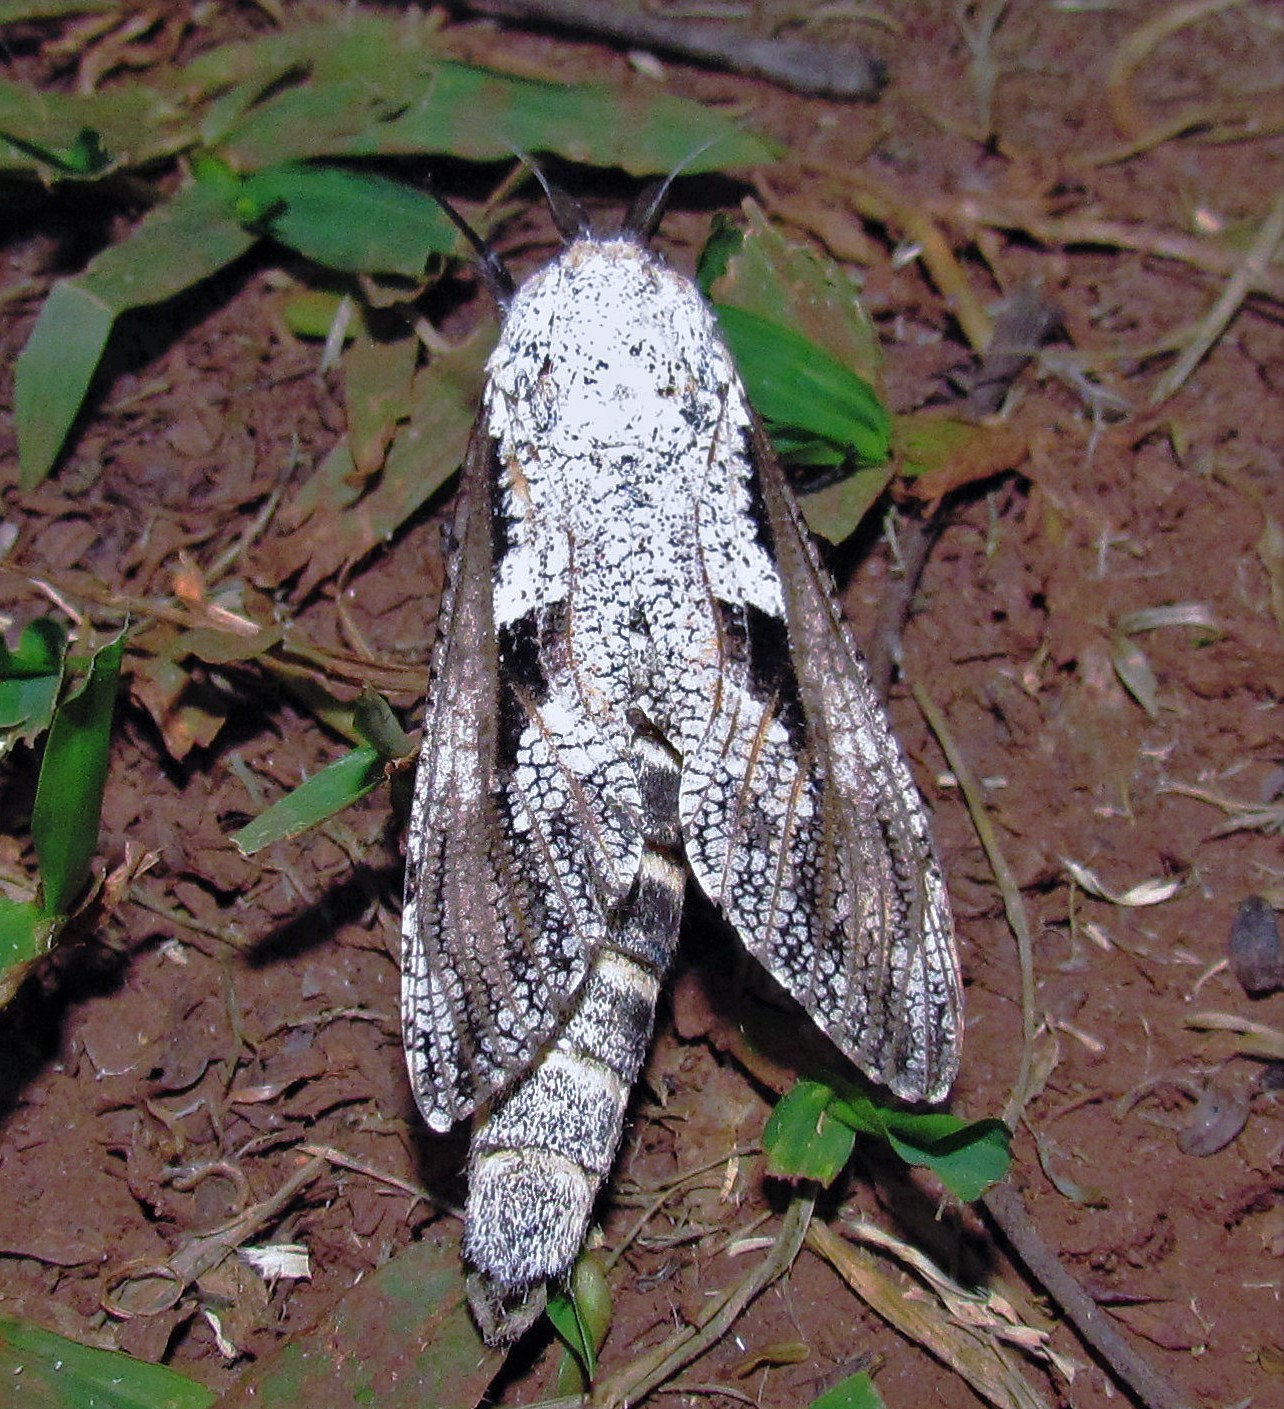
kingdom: Animalia
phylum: Arthropoda
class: Insecta
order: Lepidoptera
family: Cossidae
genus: Morpheis
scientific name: Morpheis xylotribus
